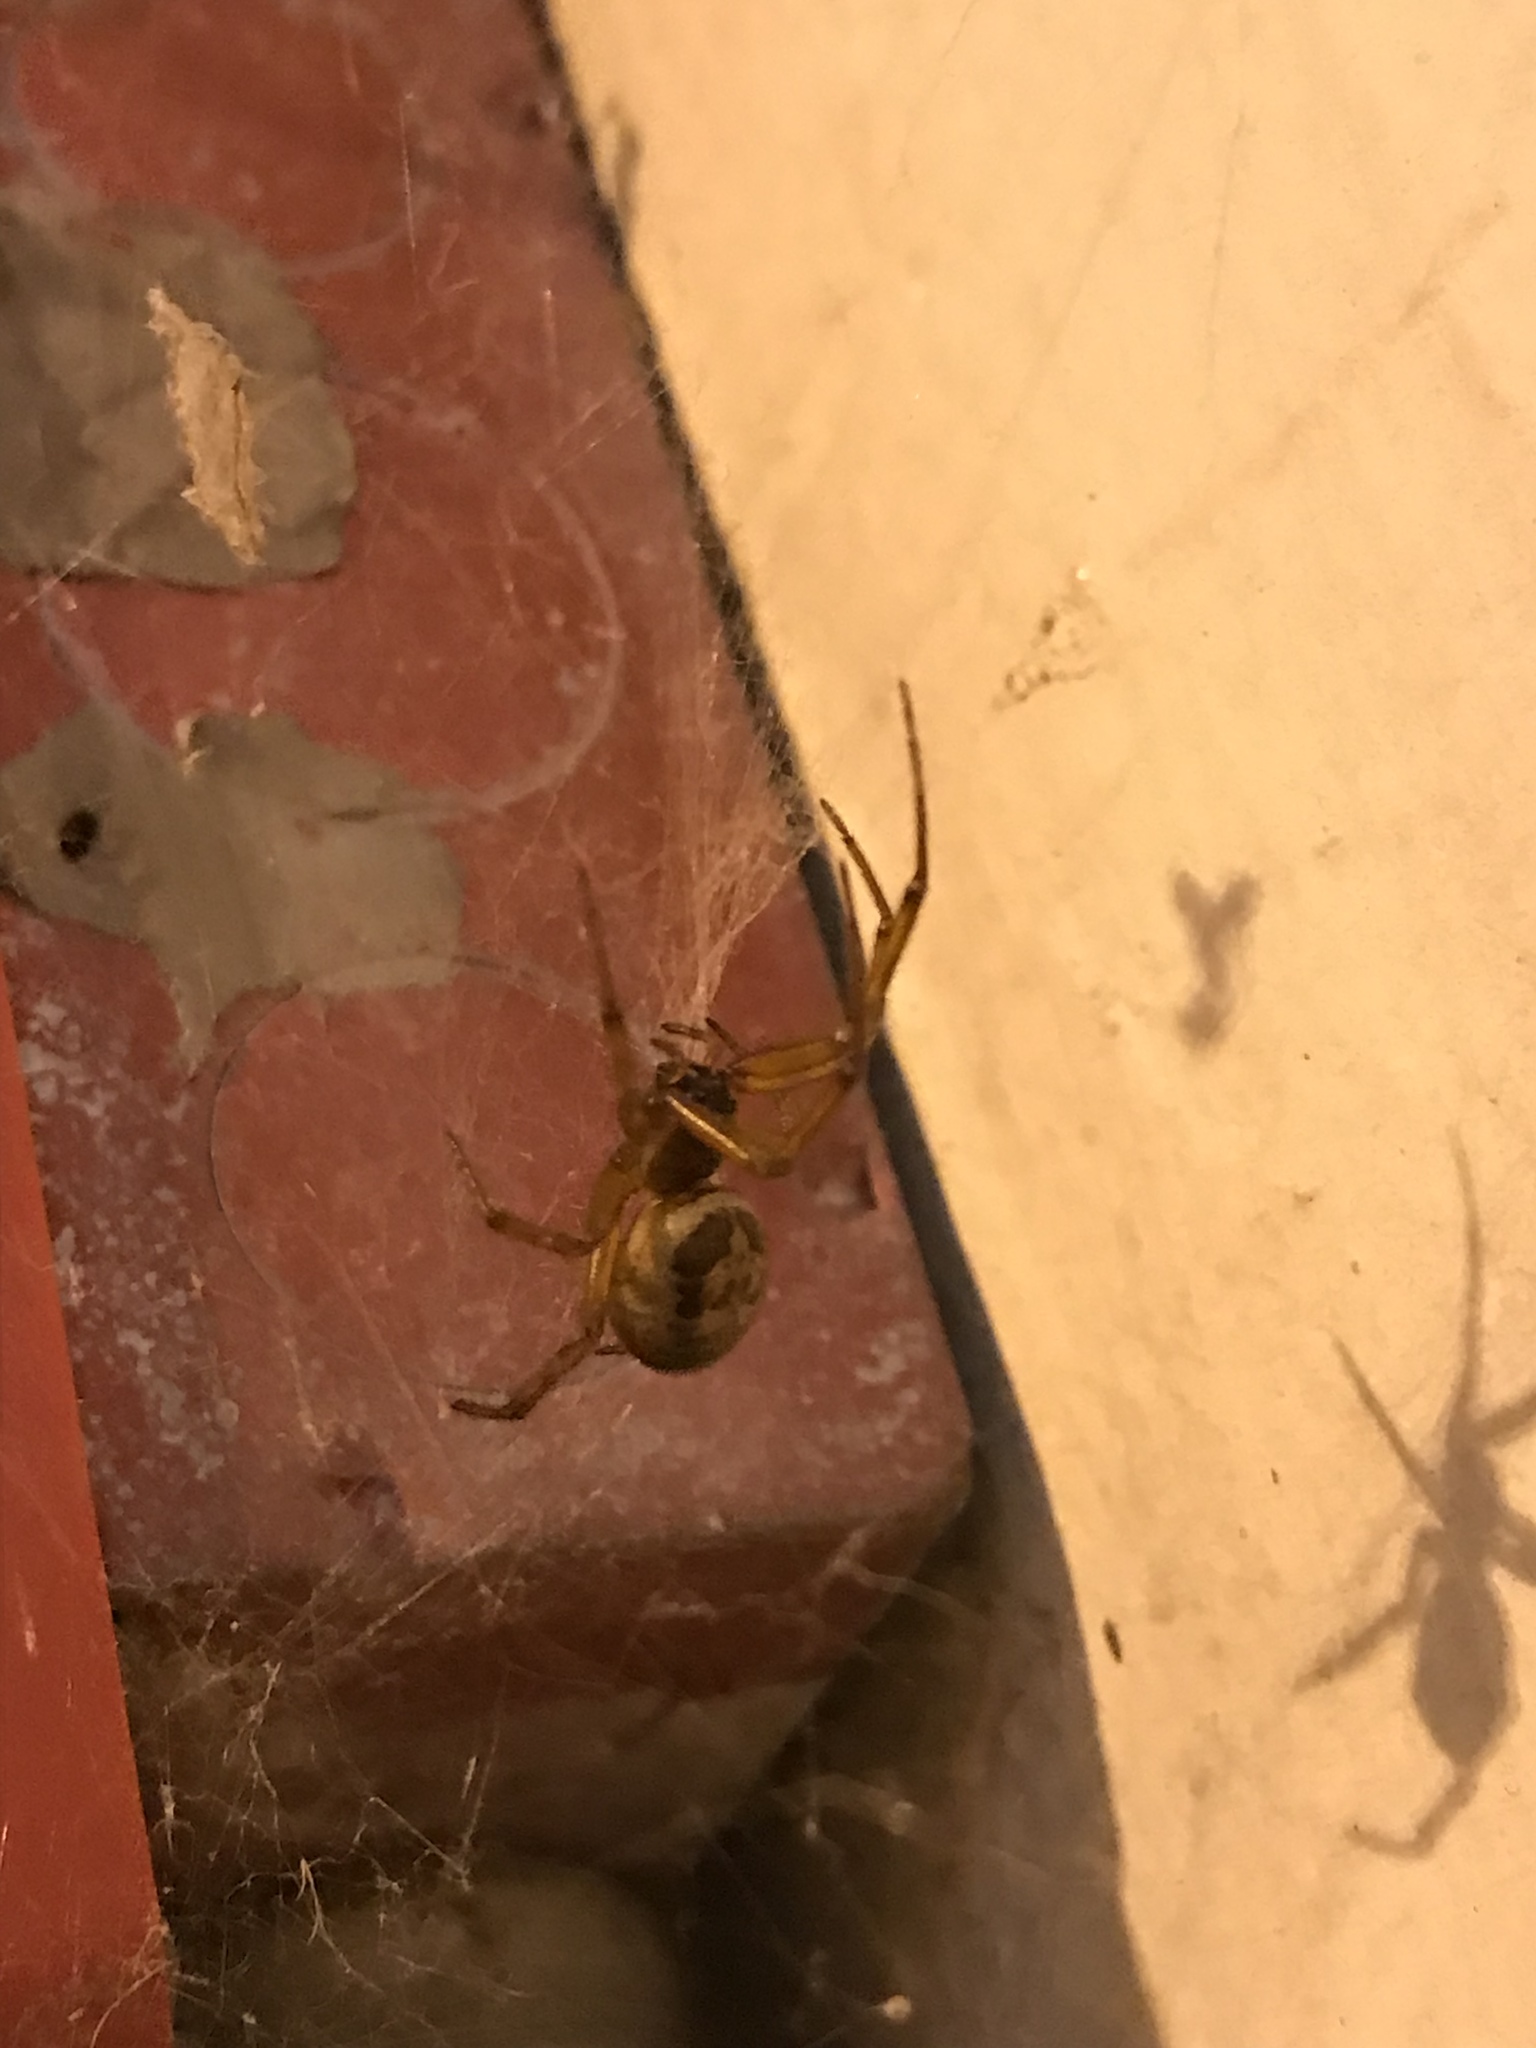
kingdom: Animalia
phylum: Arthropoda
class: Arachnida
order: Araneae
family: Theridiidae
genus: Steatoda
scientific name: Steatoda nobilis
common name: Cobweb weaver
